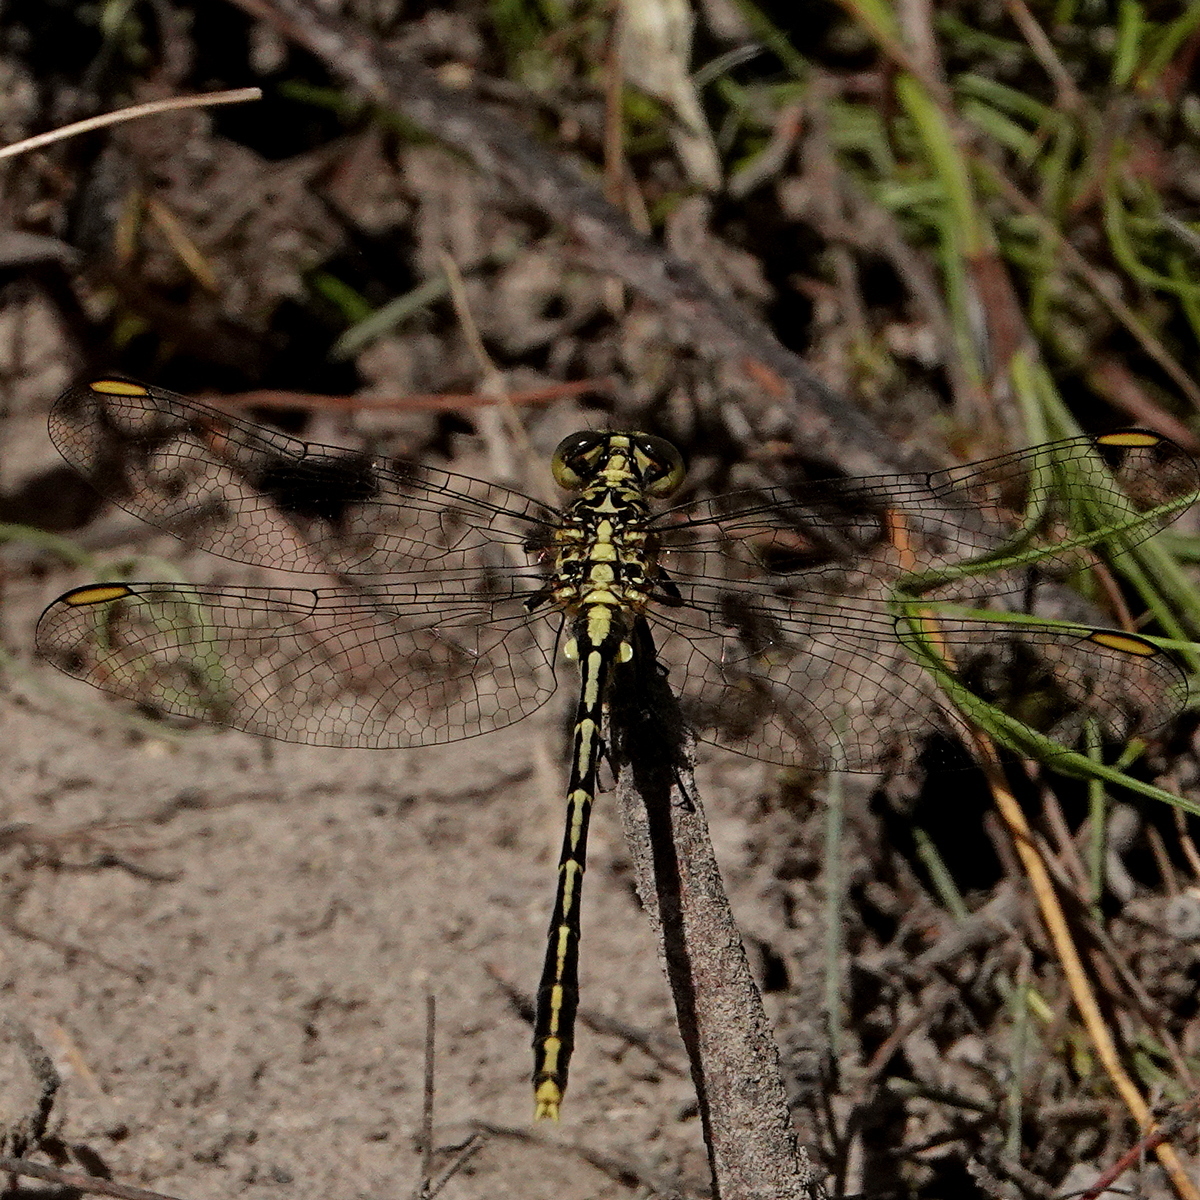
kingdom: Animalia
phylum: Arthropoda
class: Insecta
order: Odonata
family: Gomphidae
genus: Austrogomphus
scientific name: Austrogomphus guerini
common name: Yellow-striped hunter
